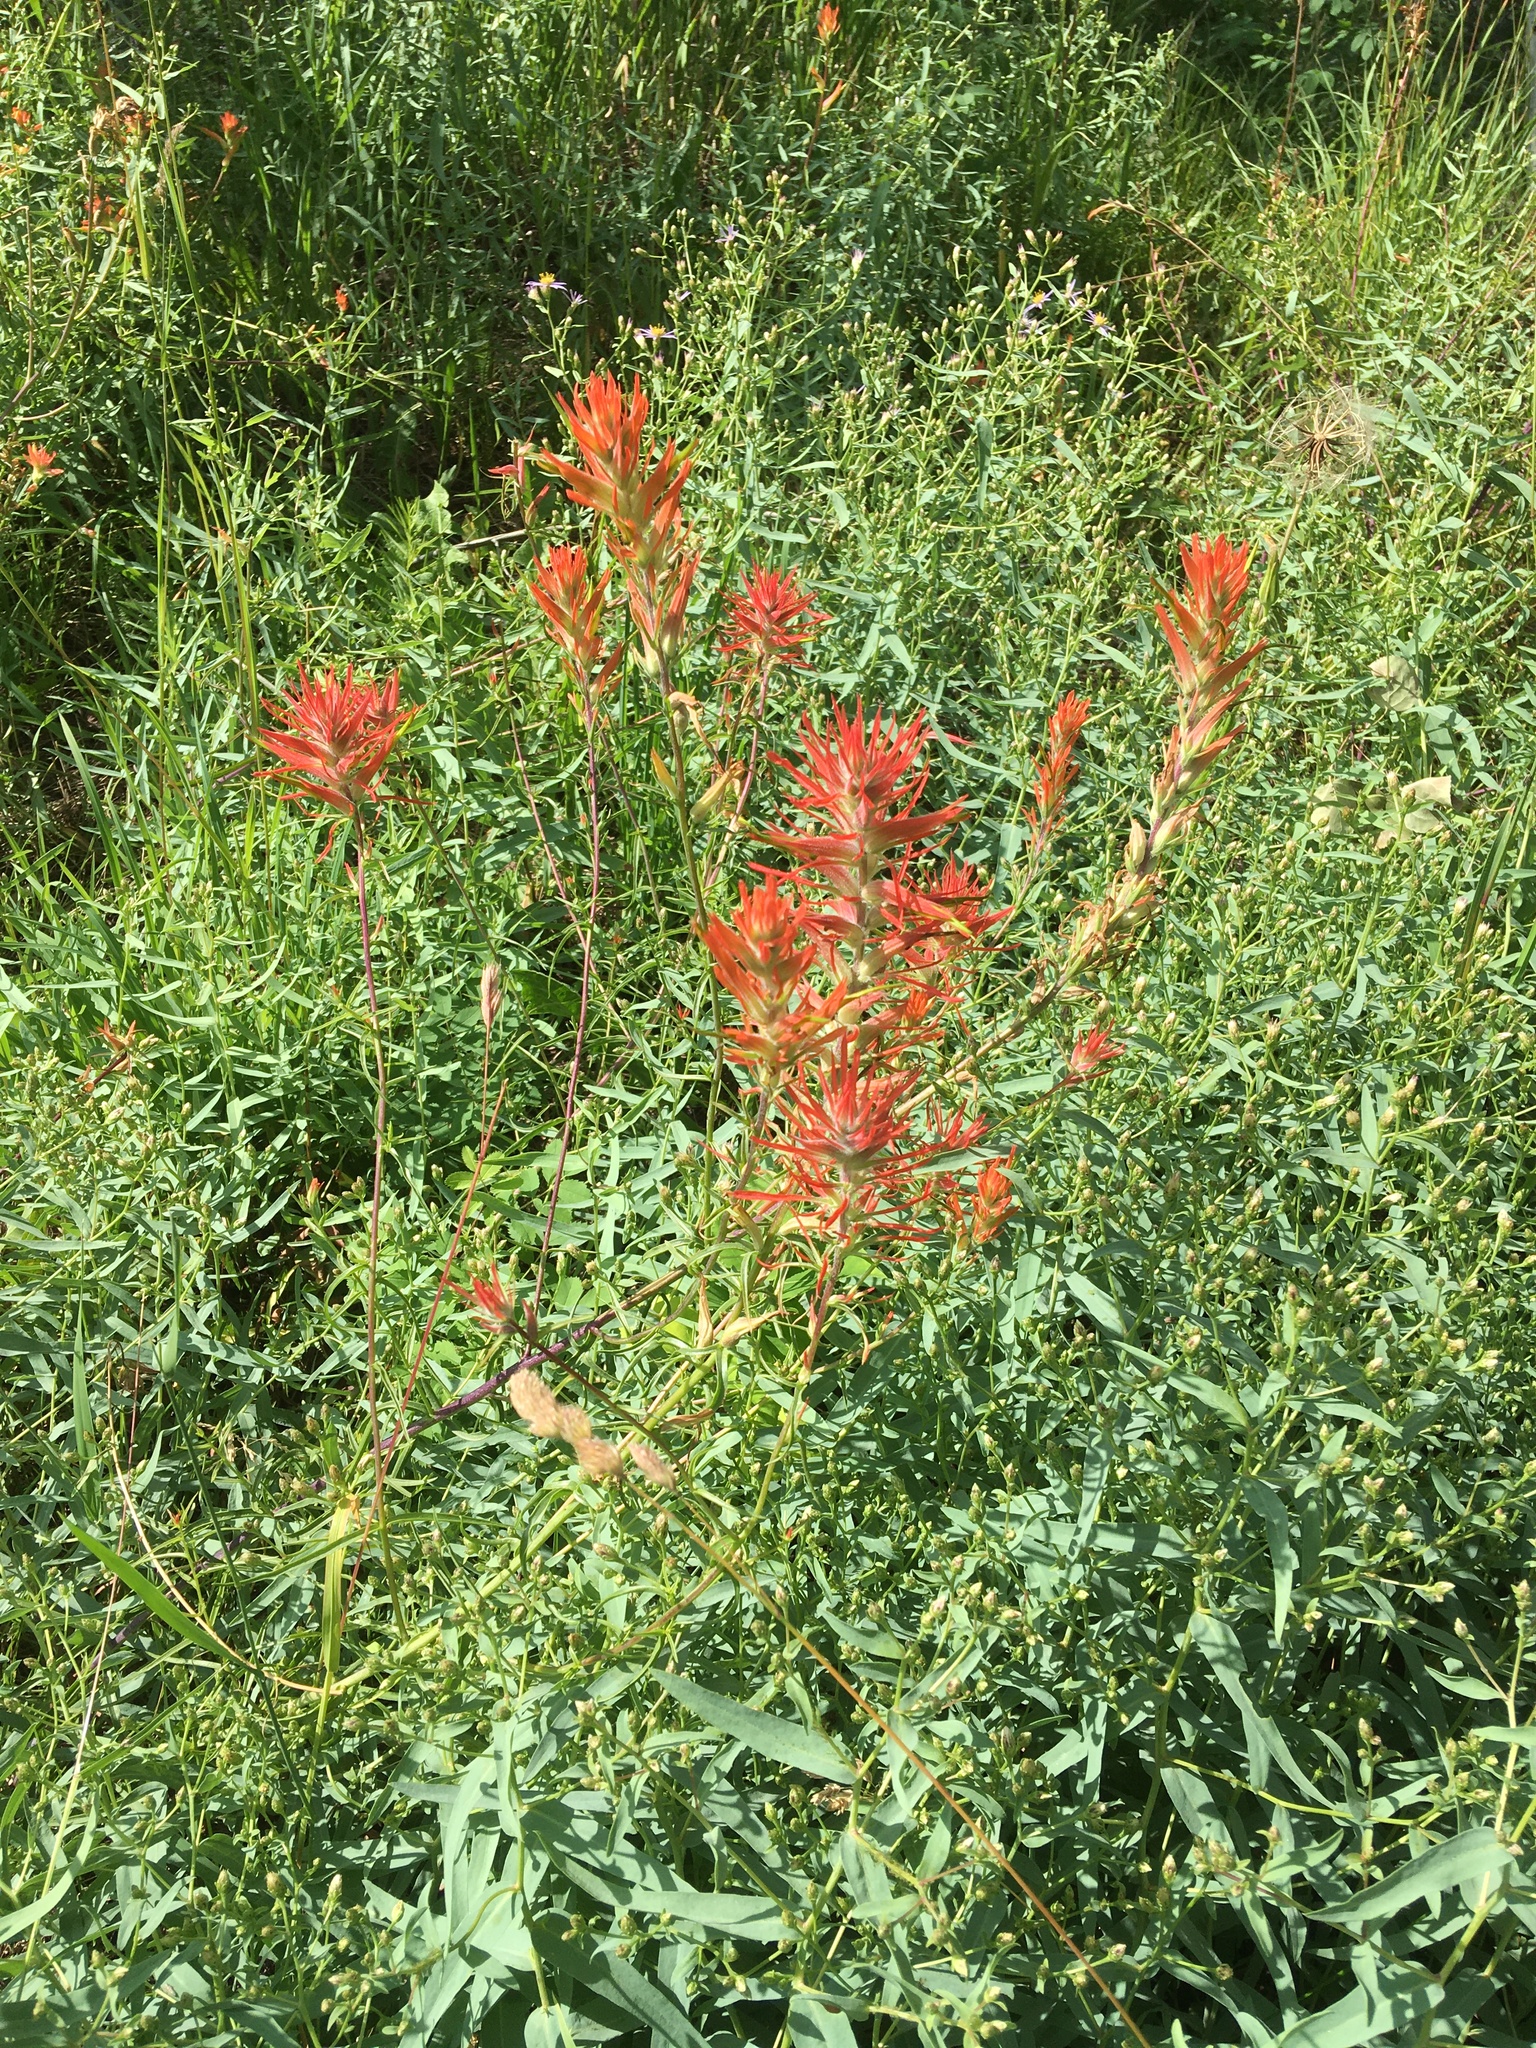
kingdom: Plantae
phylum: Tracheophyta
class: Magnoliopsida
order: Lamiales
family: Orobanchaceae
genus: Castilleja
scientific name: Castilleja linariifolia
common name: Wyoming paintbrush
